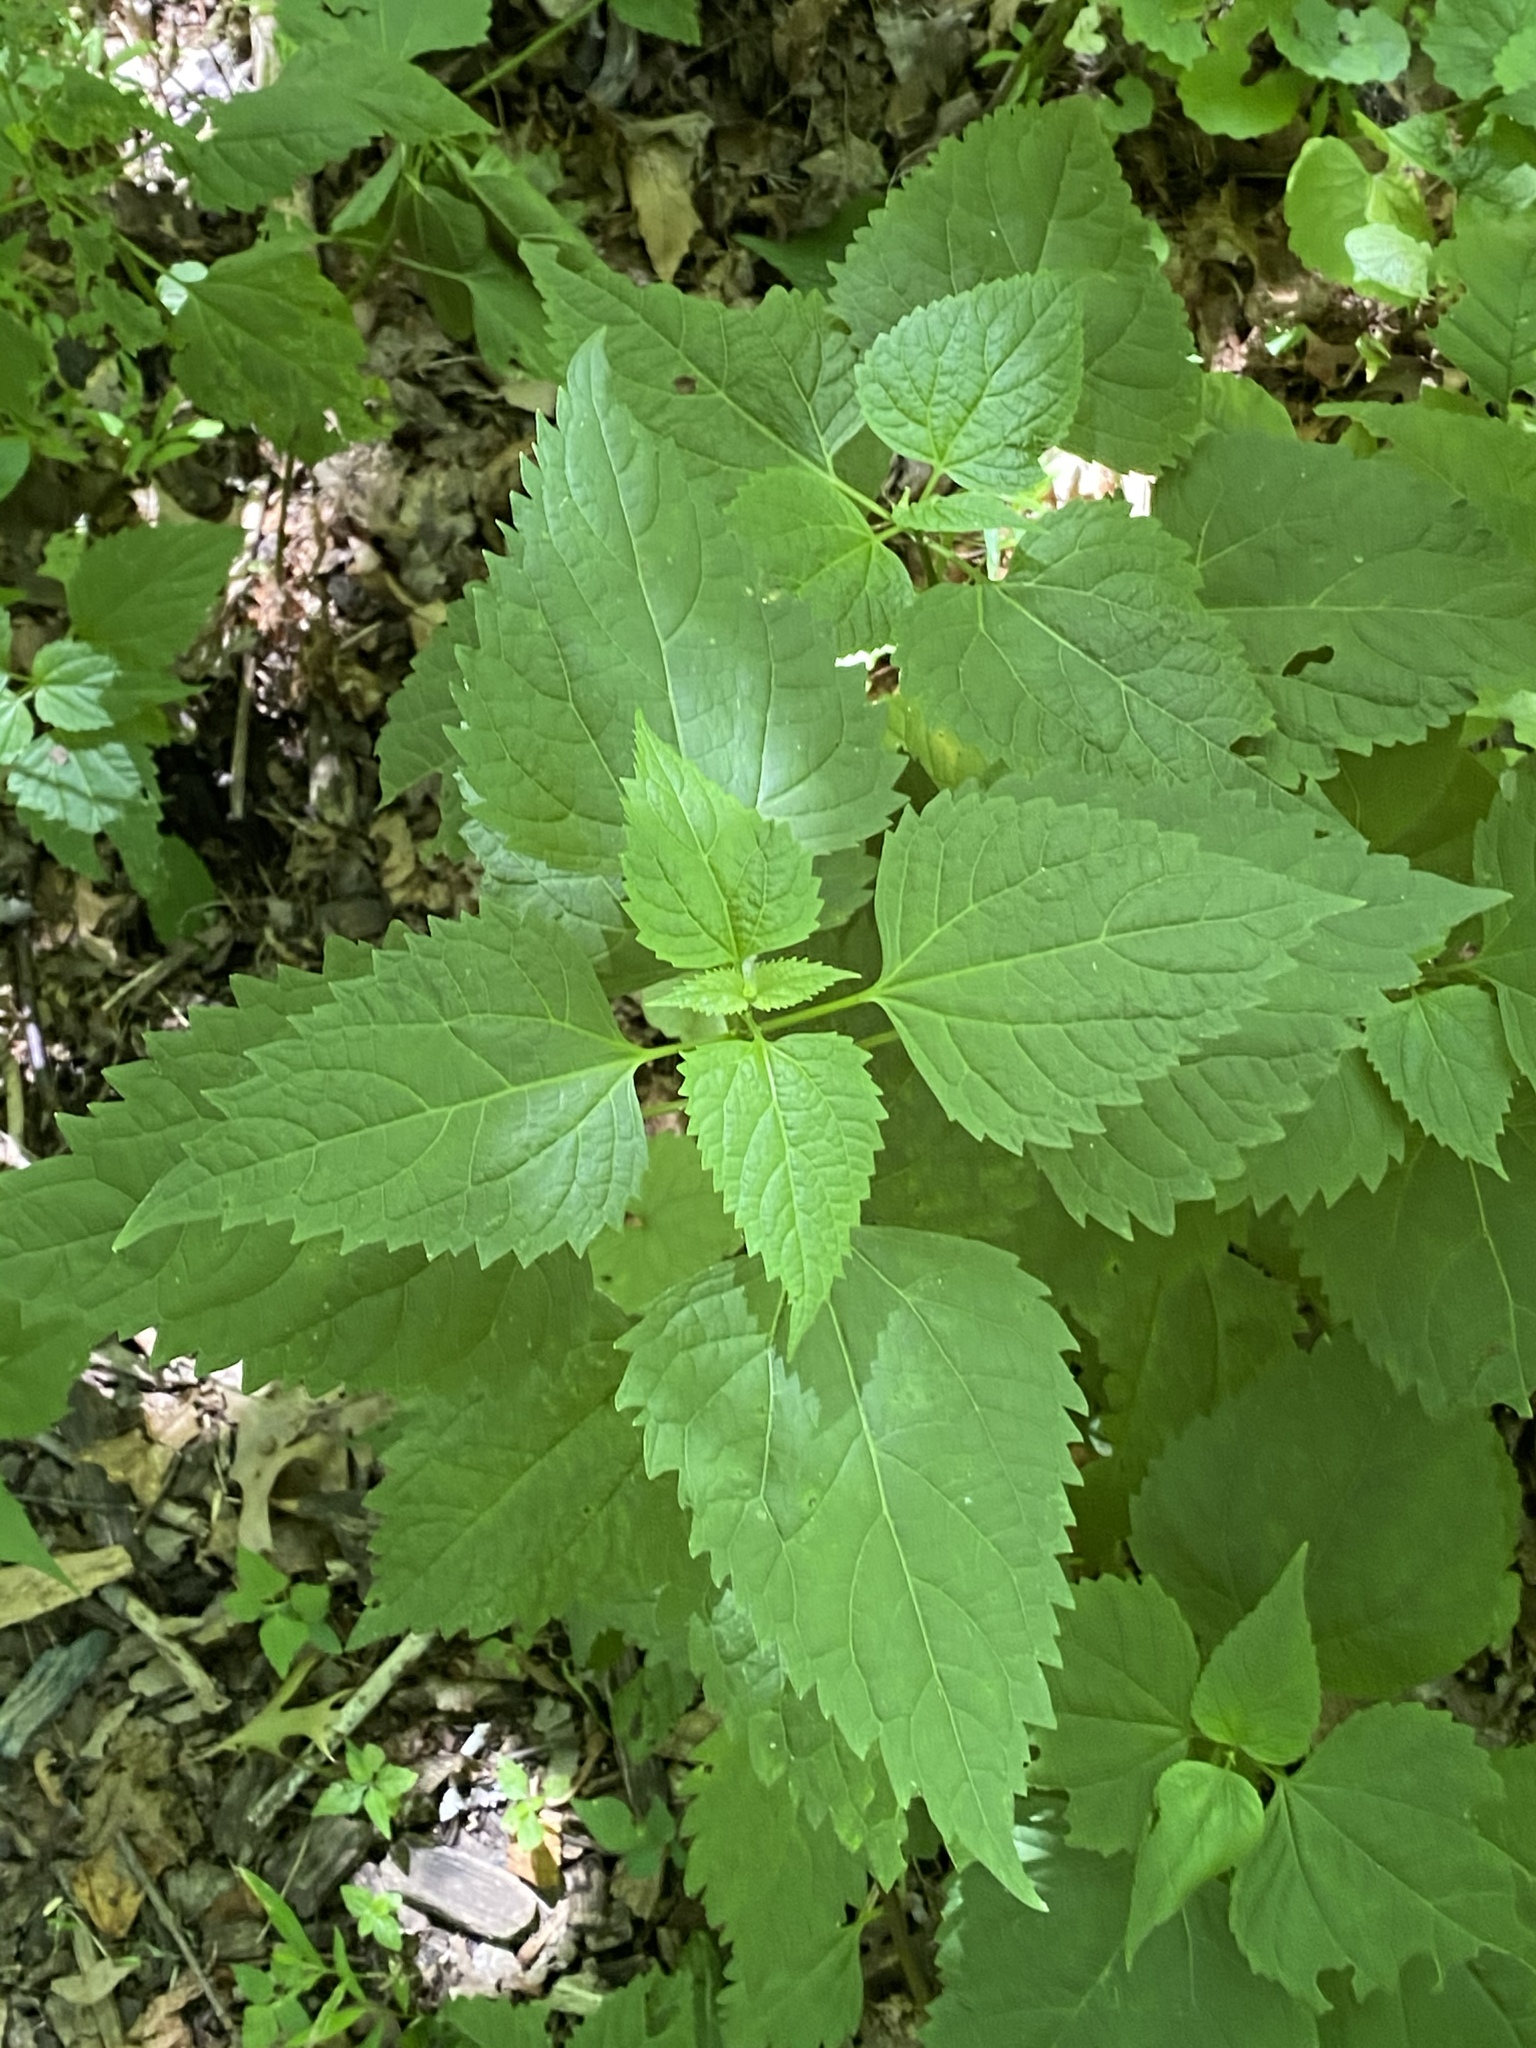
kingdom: Plantae
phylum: Tracheophyta
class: Magnoliopsida
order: Asterales
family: Asteraceae
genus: Ageratina
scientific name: Ageratina altissima
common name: White snakeroot
